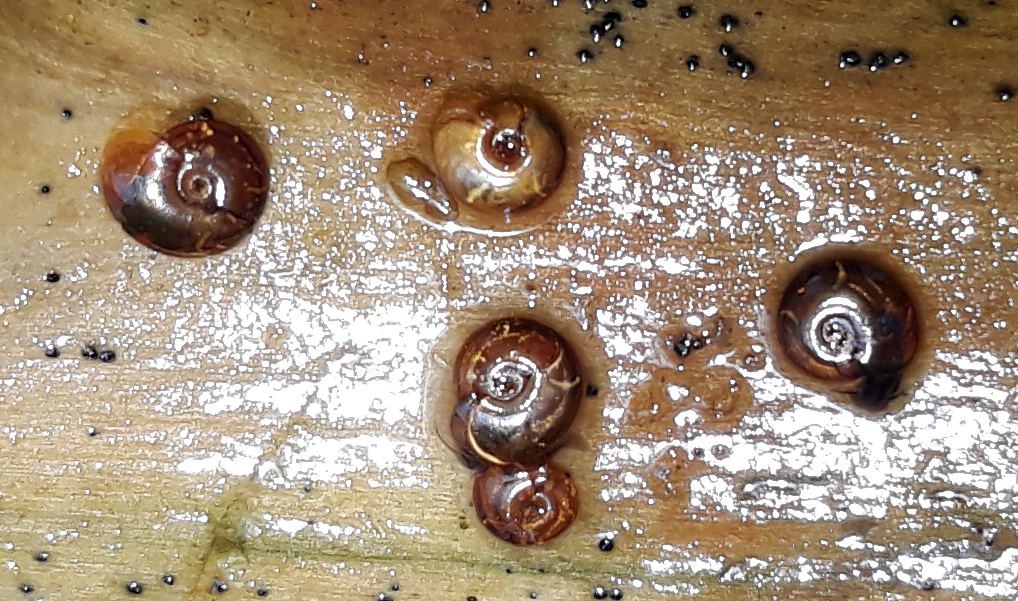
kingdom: Animalia
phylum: Mollusca
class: Gastropoda
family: Planorbidae
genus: Segmentina
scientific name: Segmentina nitida
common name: The shining ram's-horn
